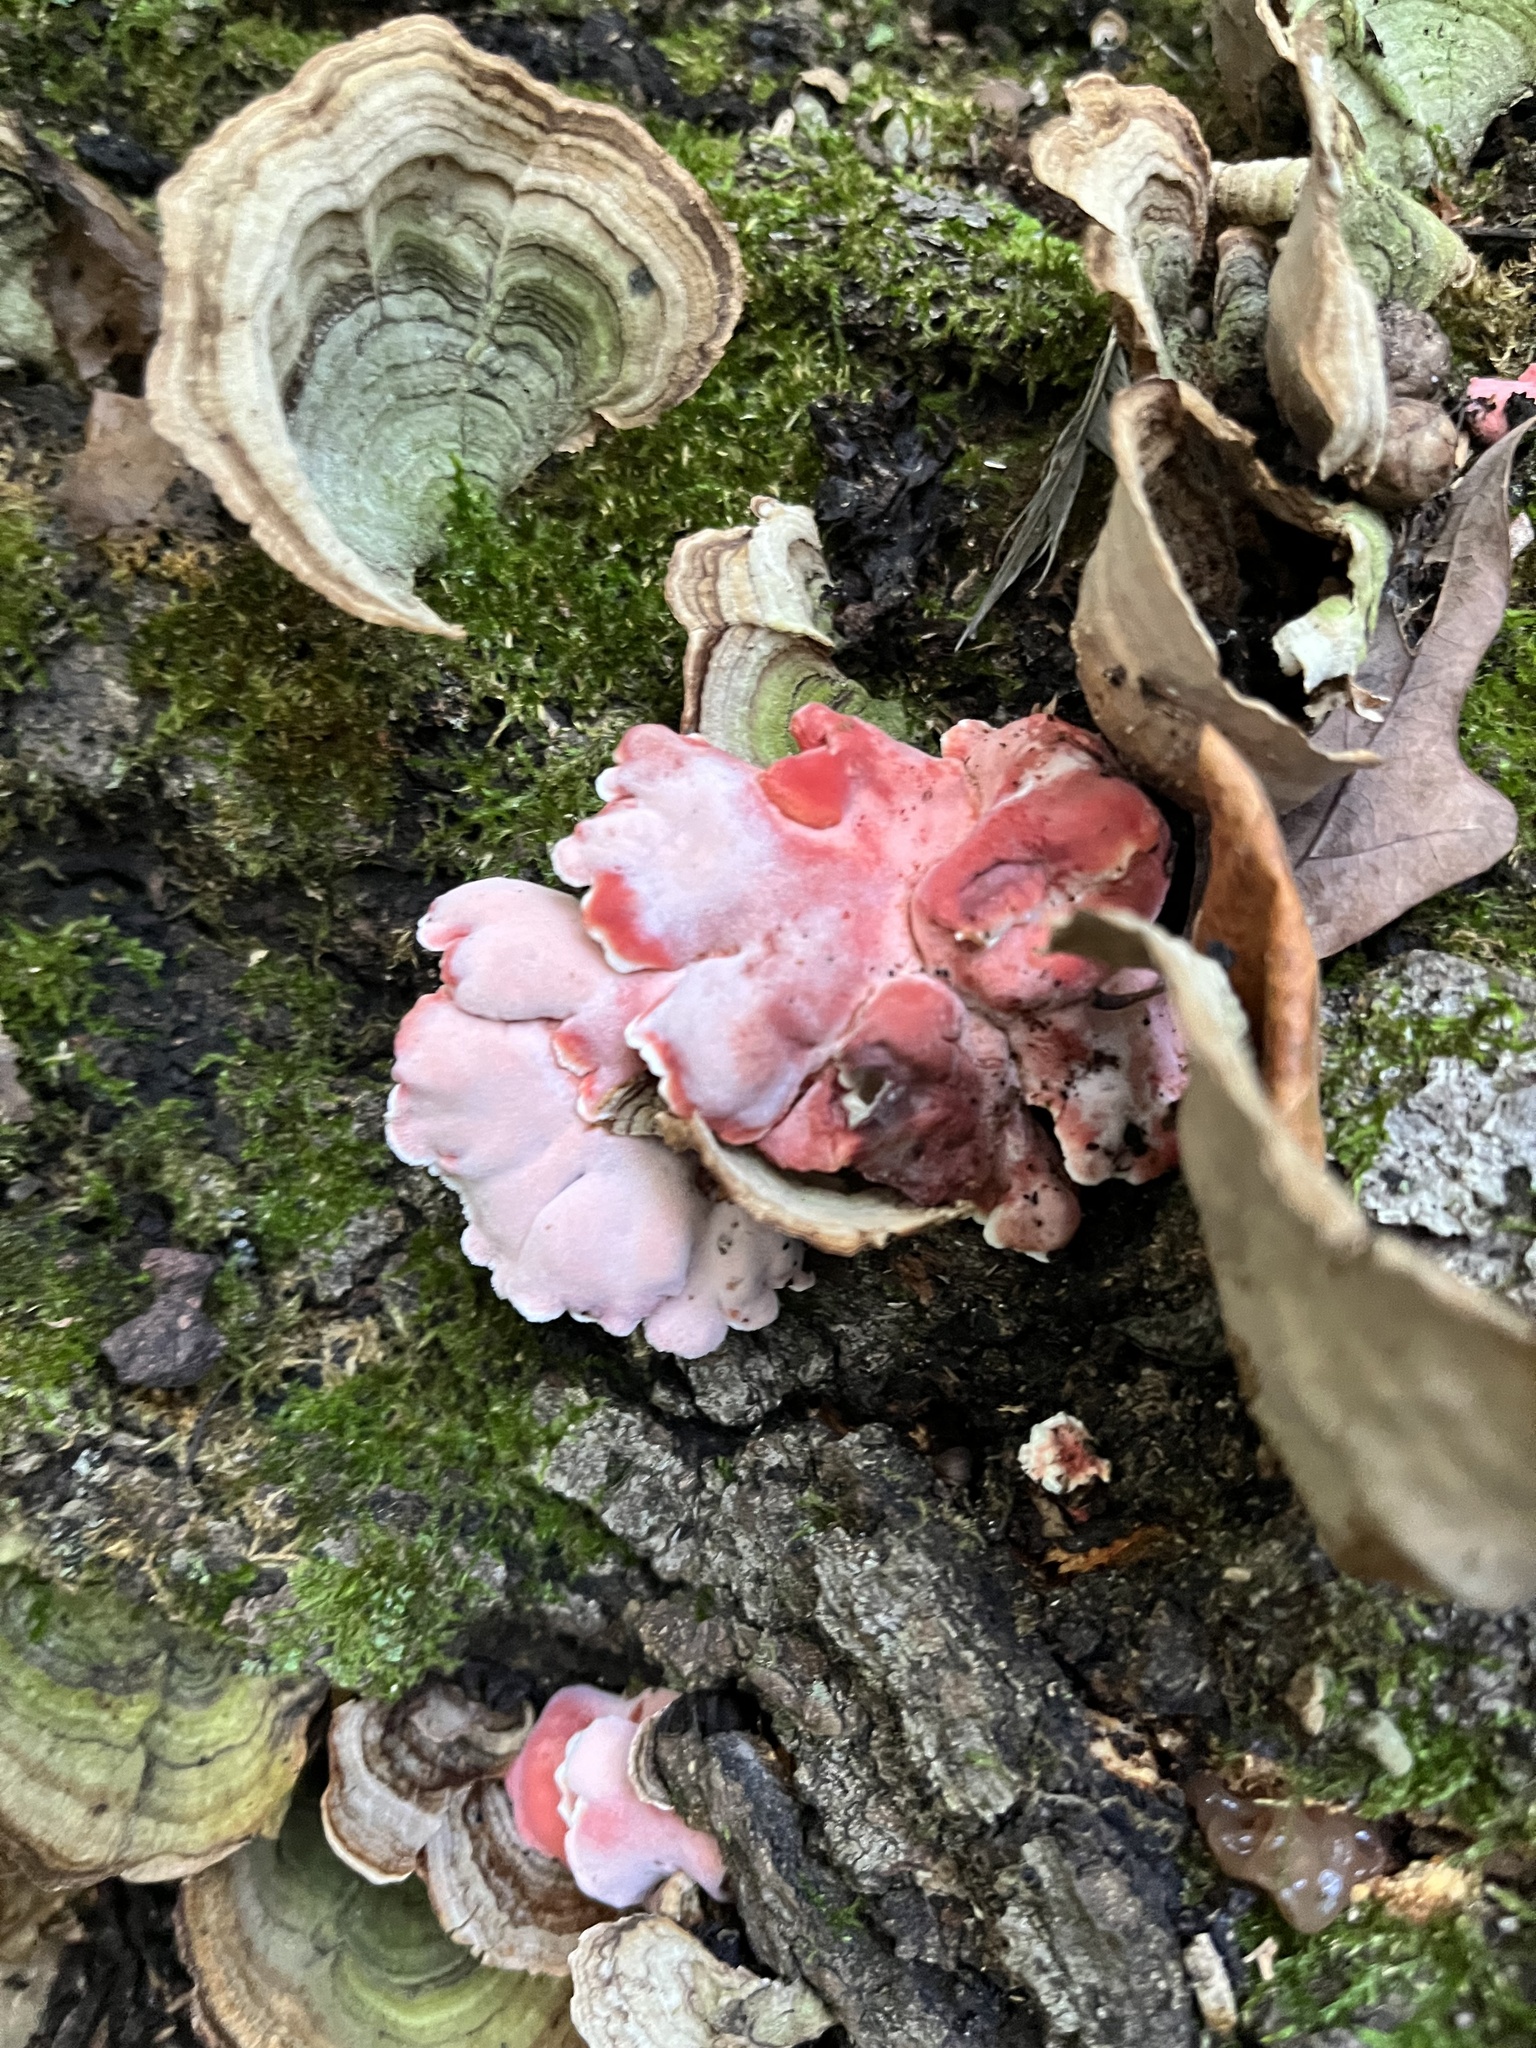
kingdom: Fungi
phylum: Basidiomycota
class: Agaricomycetes
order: Polyporales
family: Irpicaceae
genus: Byssomerulius
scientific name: Byssomerulius incarnatus
